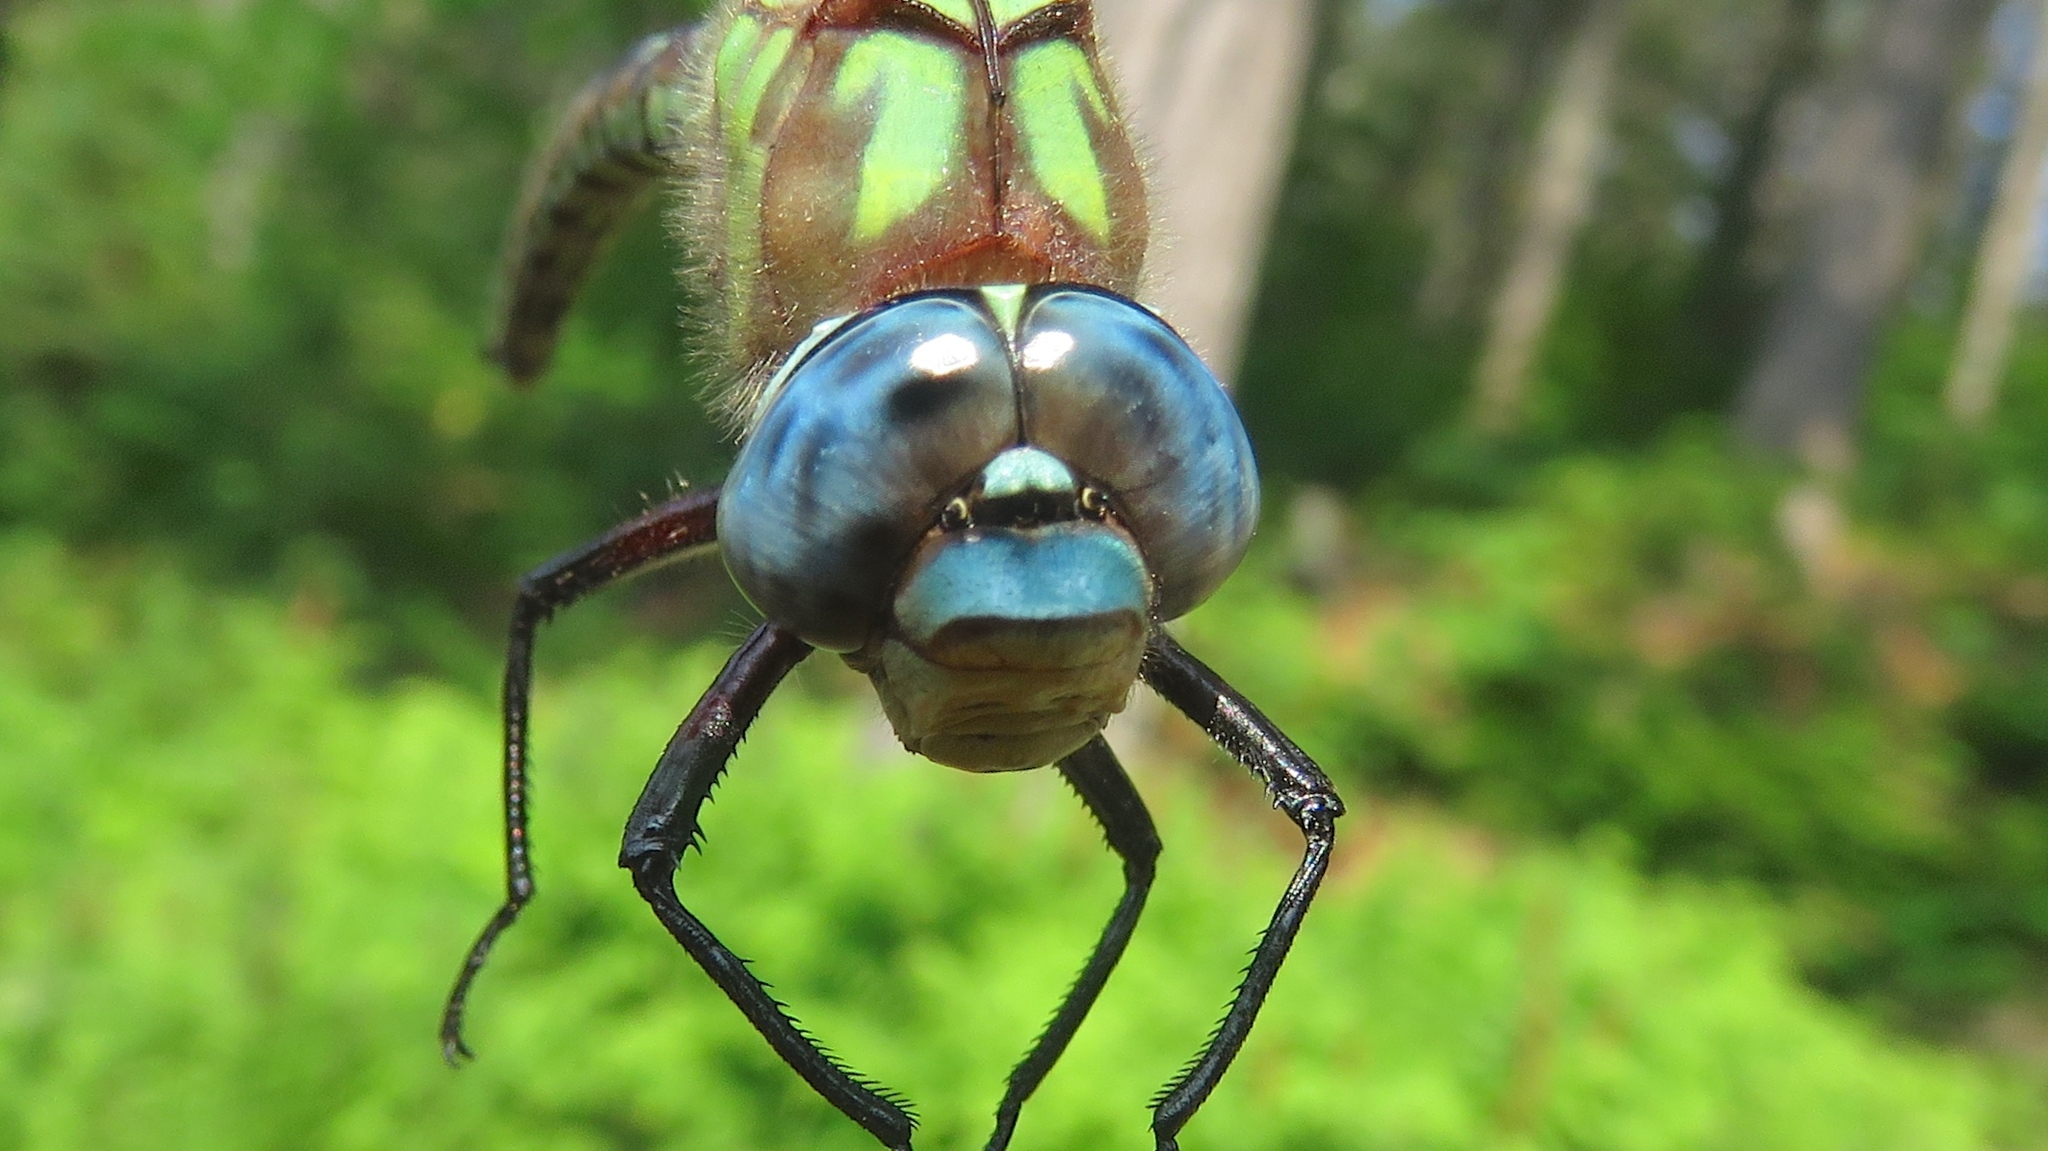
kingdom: Animalia
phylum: Arthropoda
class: Insecta
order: Odonata
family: Aeshnidae
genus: Nasiaeschna
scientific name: Nasiaeschna pentacantha
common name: Cyrano darner
